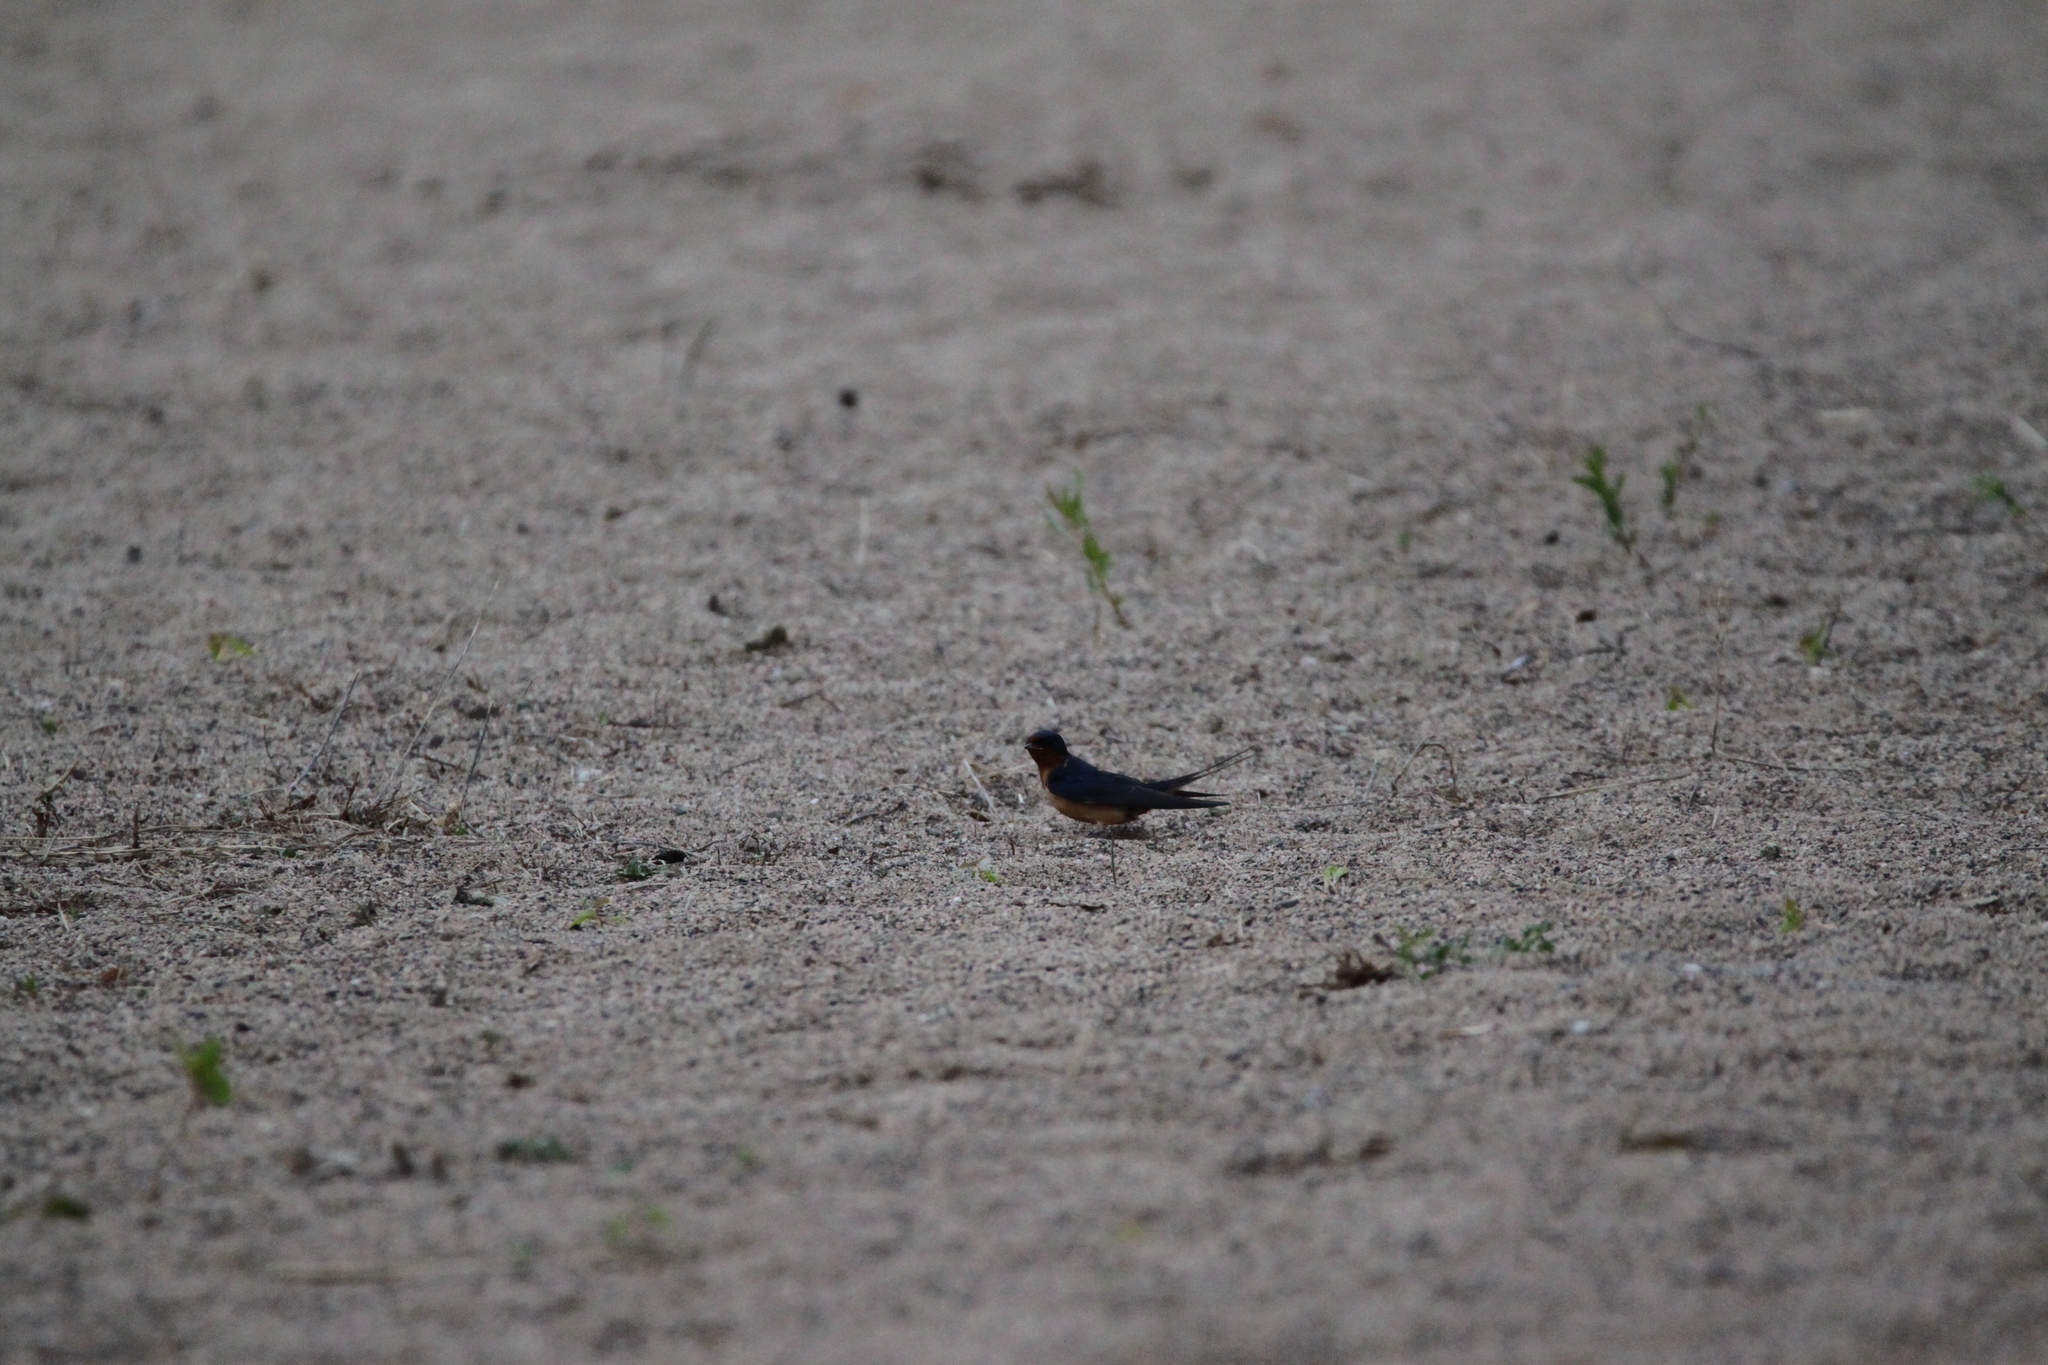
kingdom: Animalia
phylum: Chordata
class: Aves
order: Passeriformes
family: Hirundinidae
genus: Hirundo
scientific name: Hirundo rustica
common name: Barn swallow
